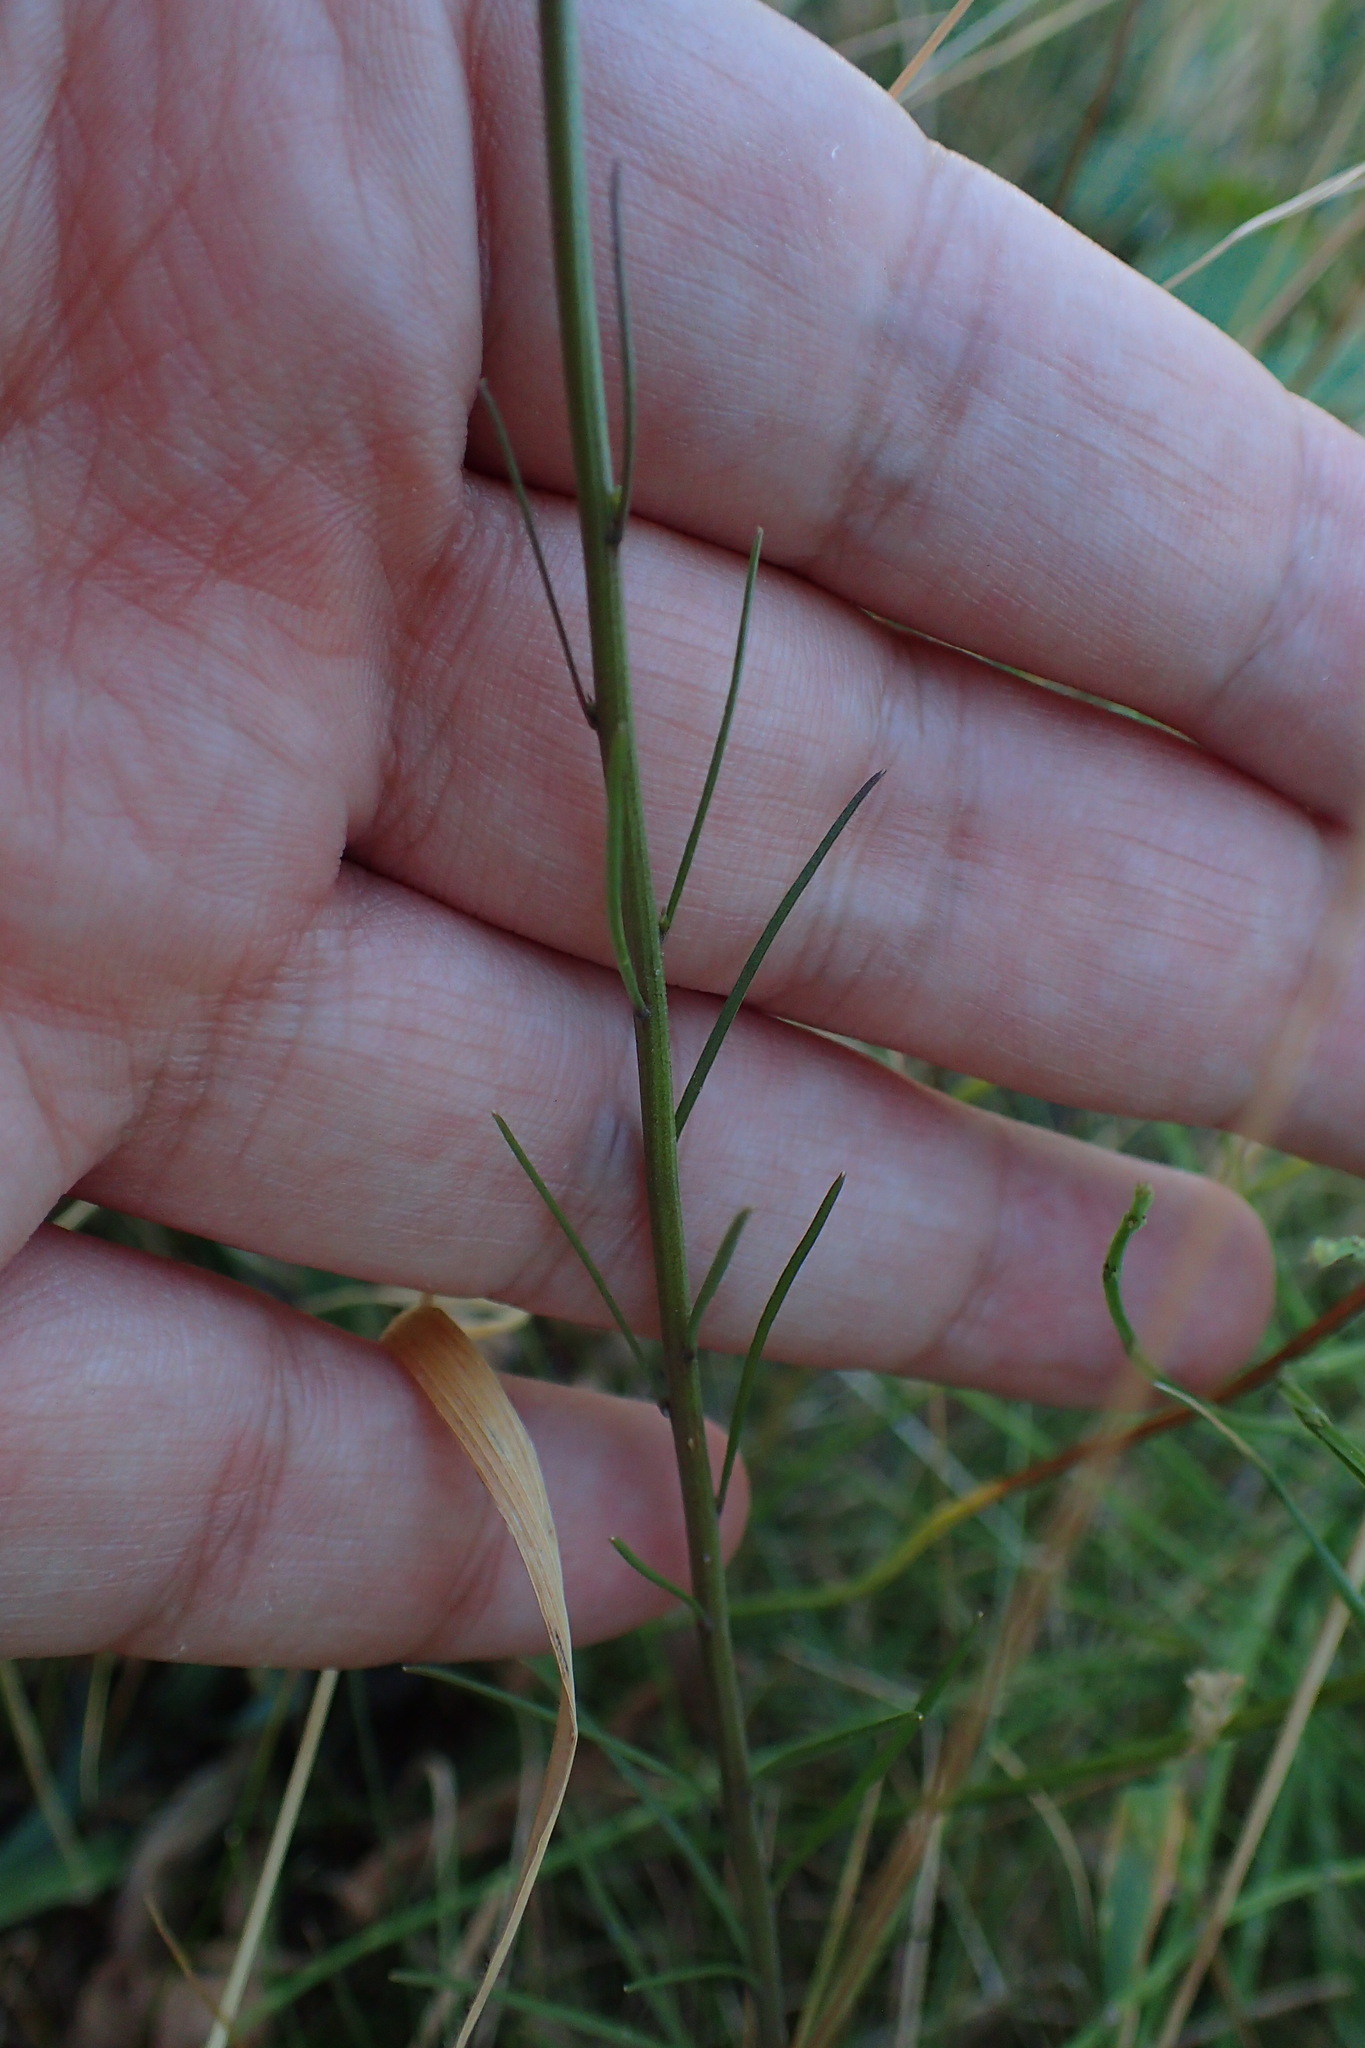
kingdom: Plantae
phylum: Tracheophyta
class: Magnoliopsida
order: Asterales
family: Campanulaceae
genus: Campanula
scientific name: Campanula rotundifolia
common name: Harebell
